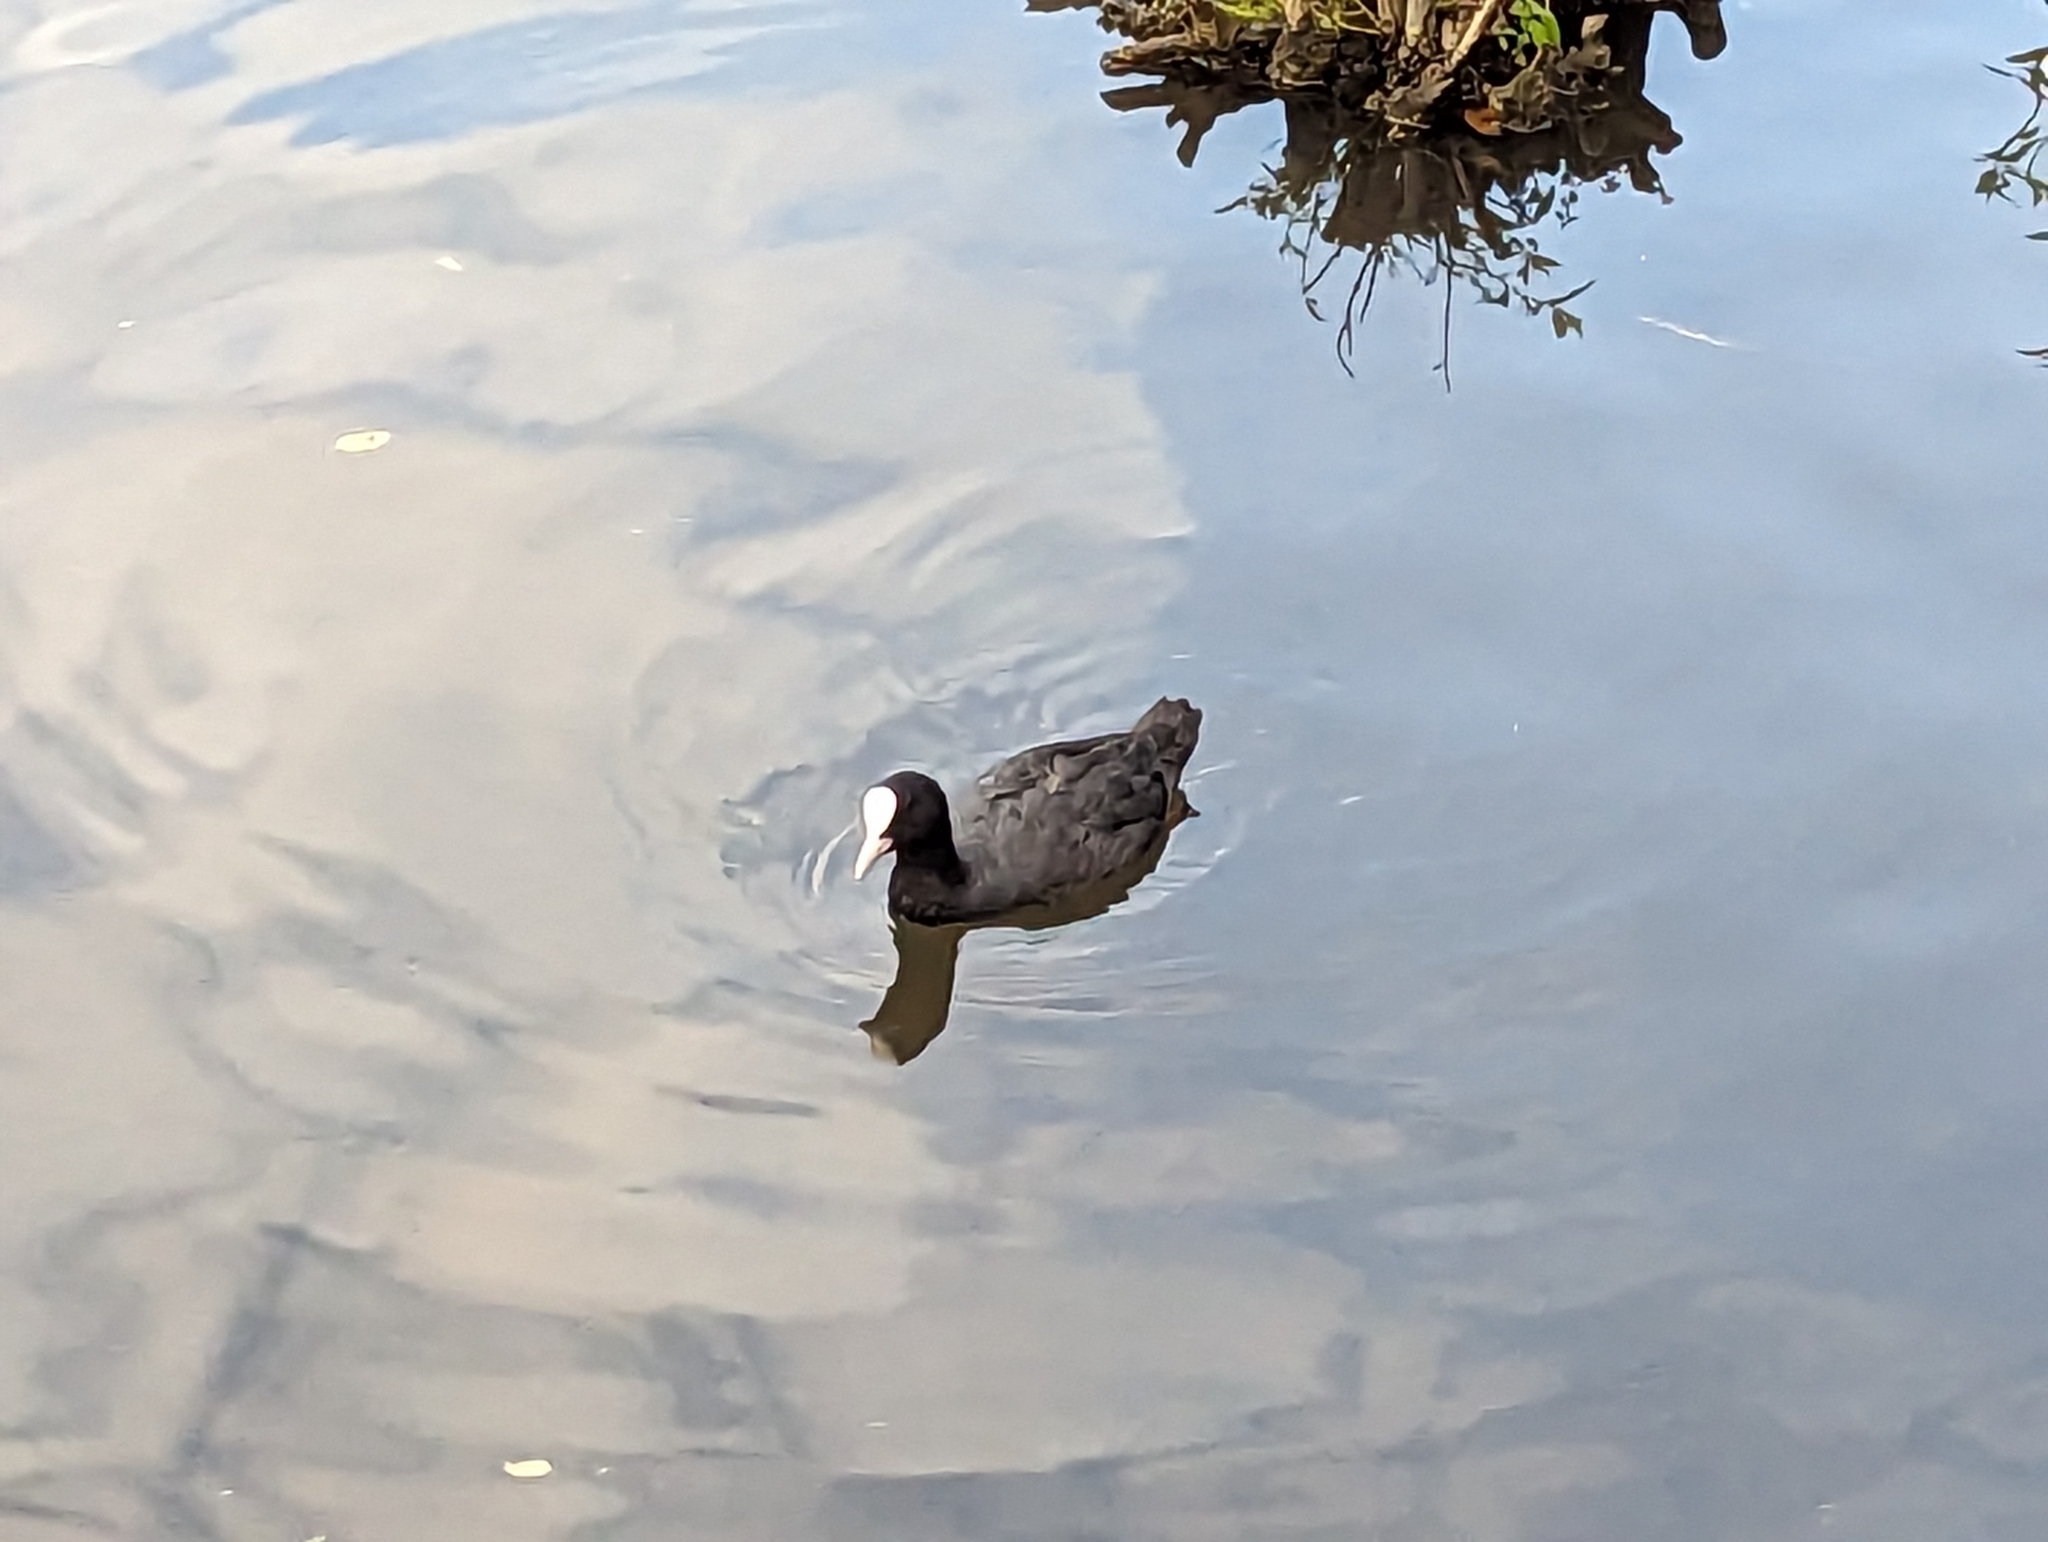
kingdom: Animalia
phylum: Chordata
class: Aves
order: Gruiformes
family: Rallidae
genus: Fulica
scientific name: Fulica atra
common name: Eurasian coot
